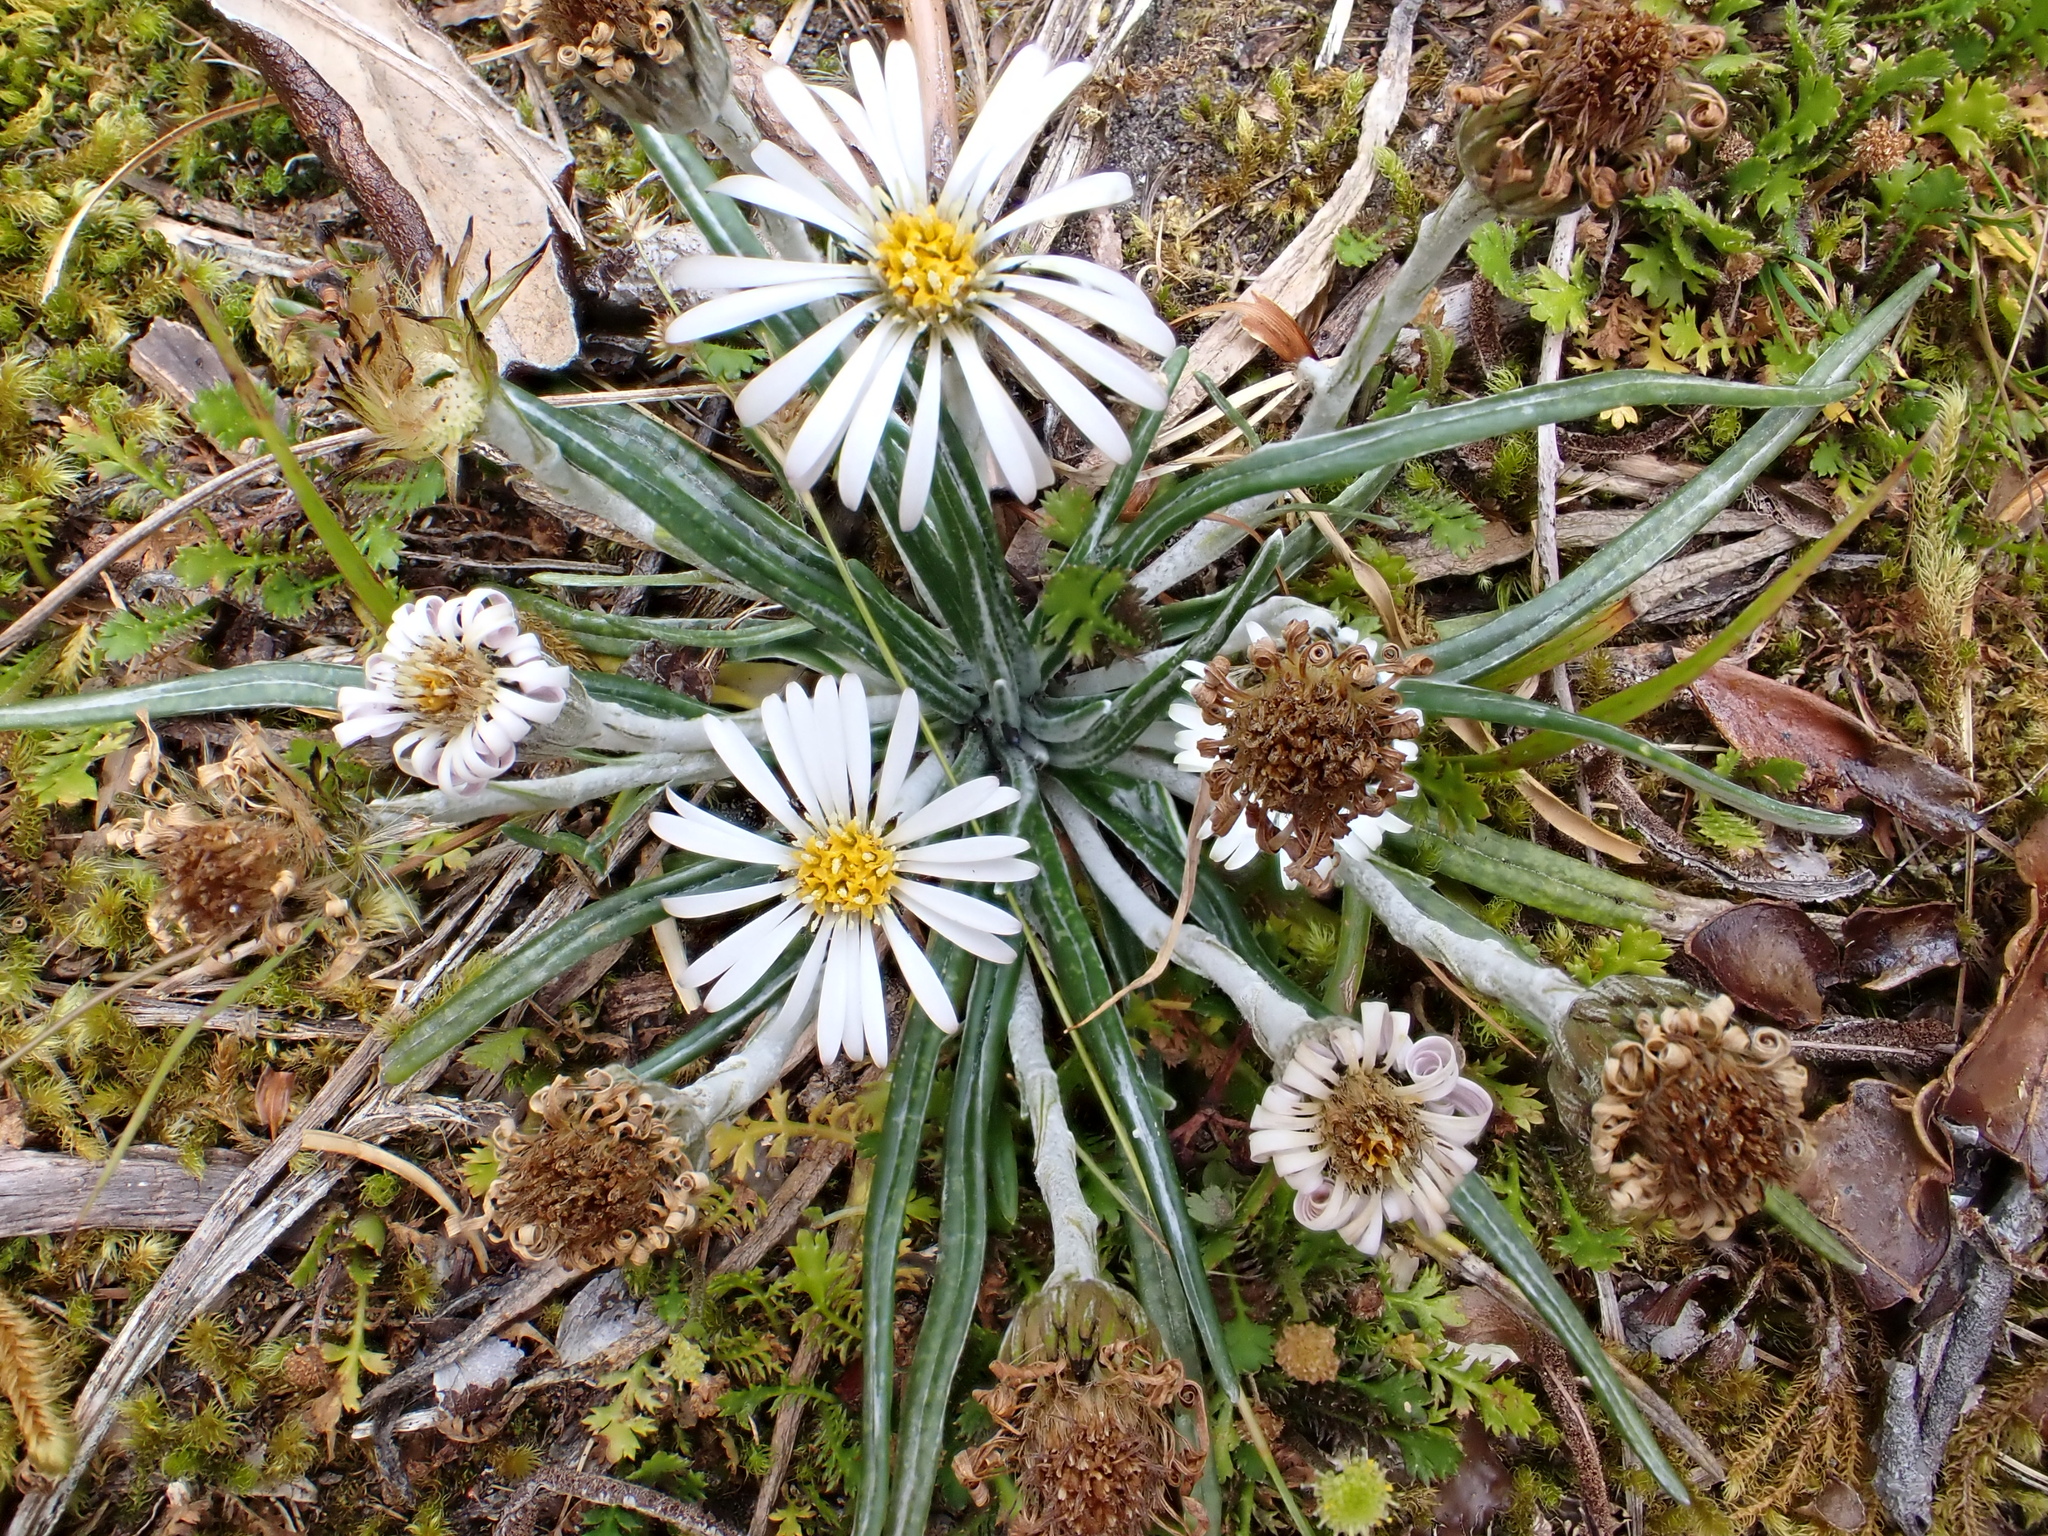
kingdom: Plantae
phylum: Tracheophyta
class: Magnoliopsida
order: Asterales
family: Asteraceae
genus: Celmisia
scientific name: Celmisia major
